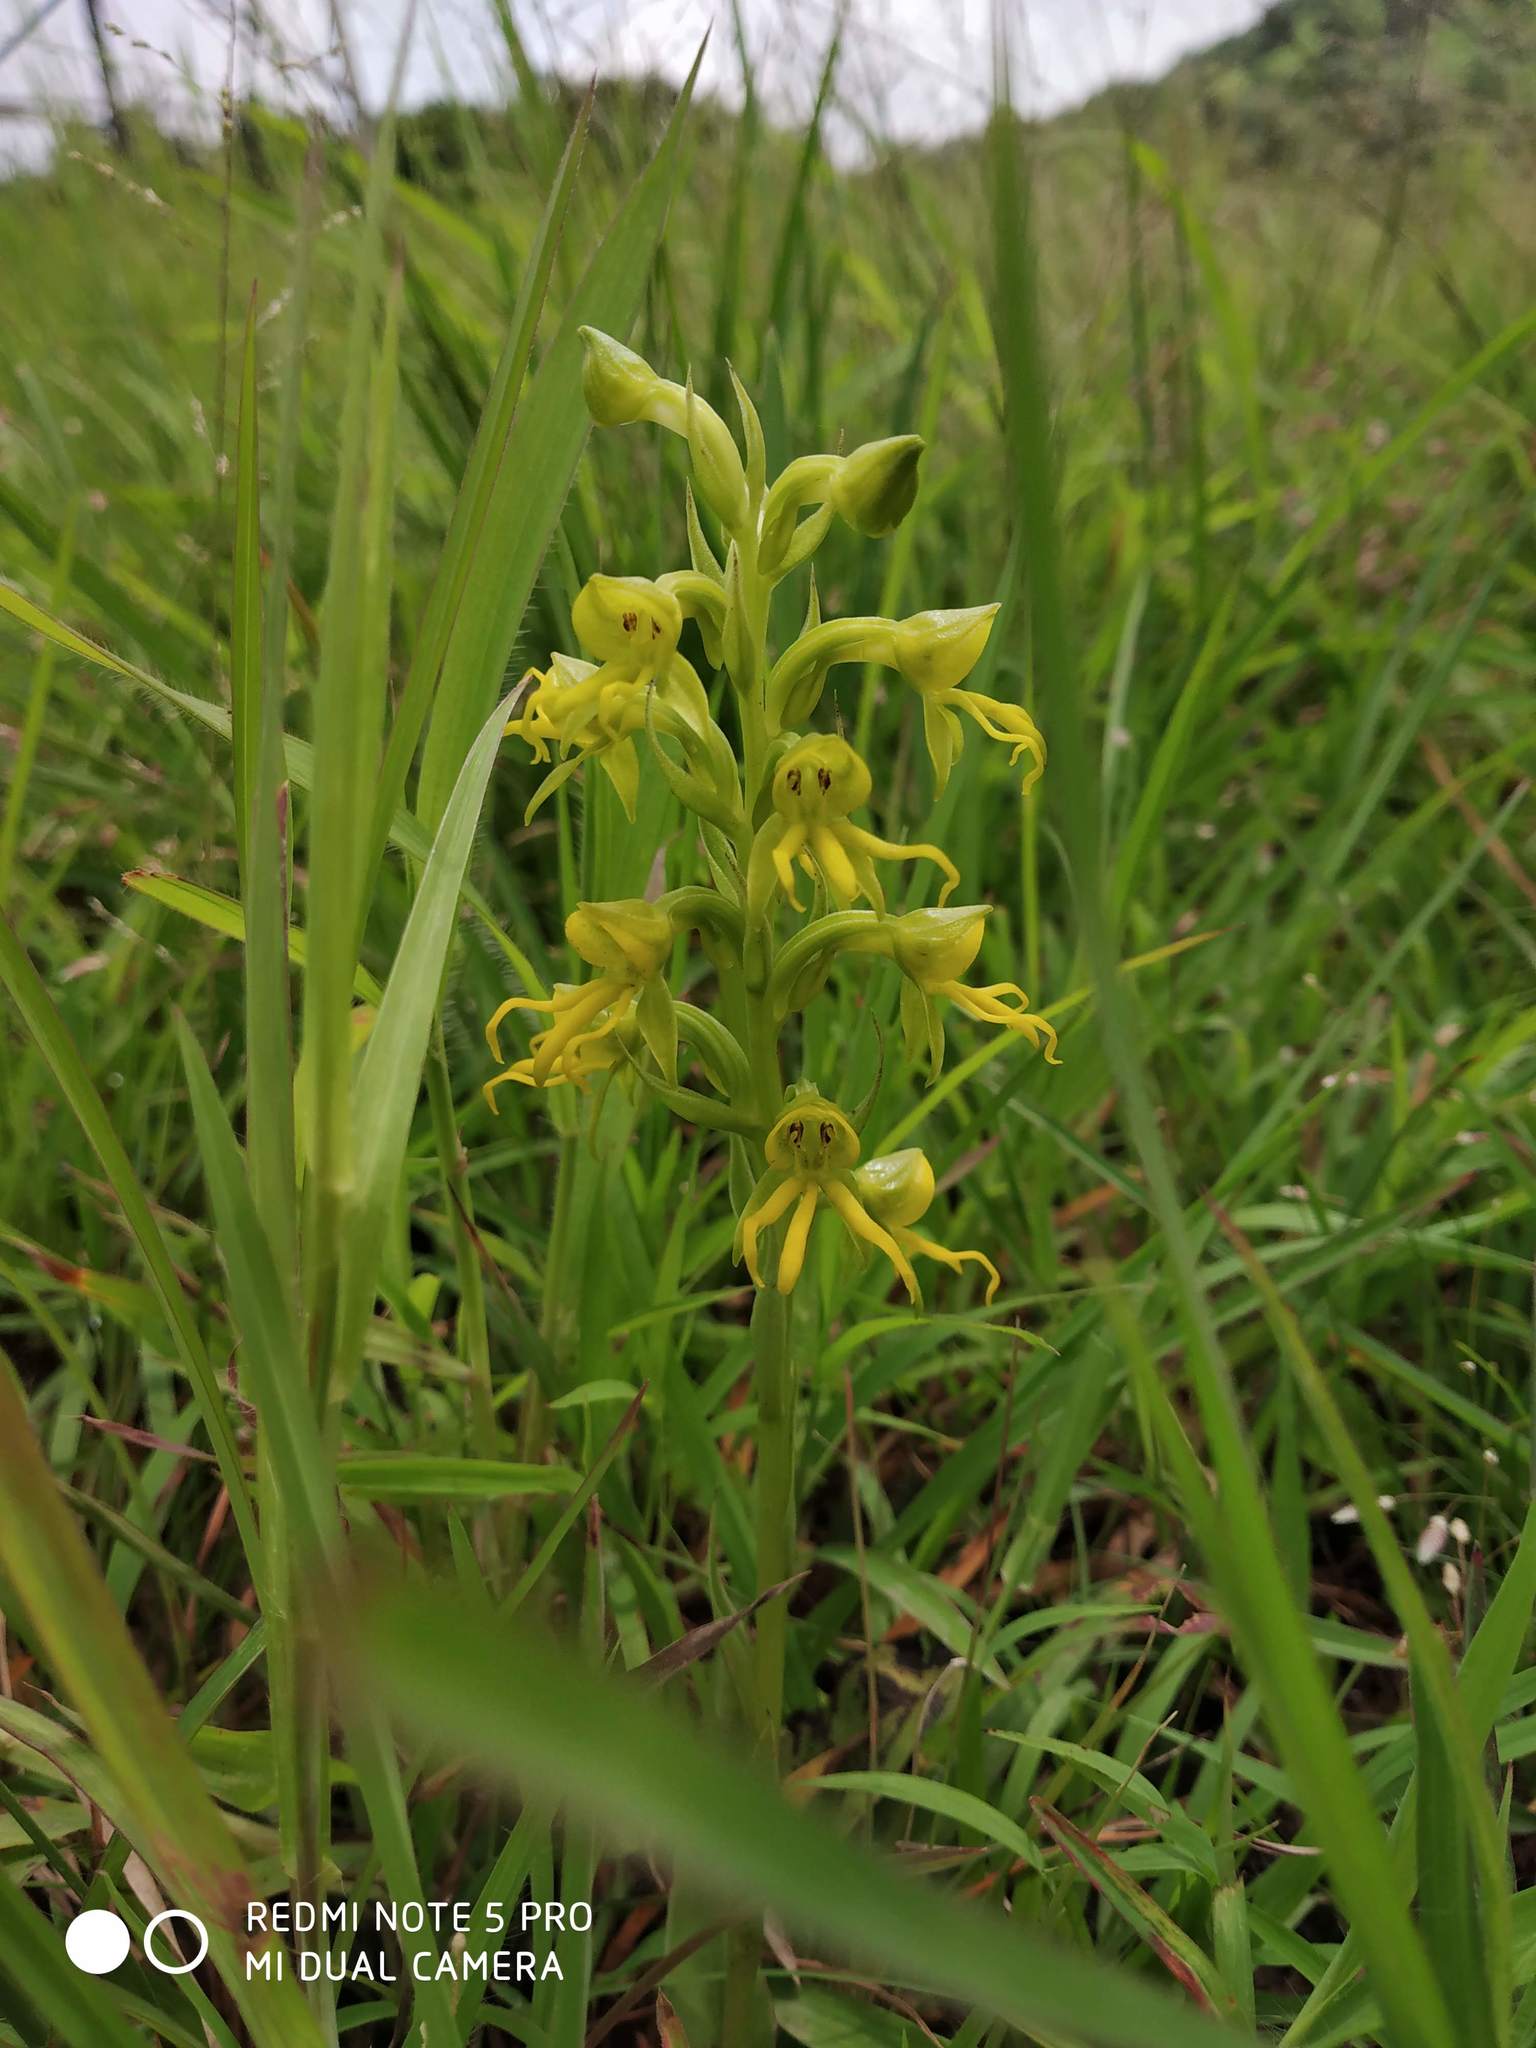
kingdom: Plantae
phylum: Tracheophyta
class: Liliopsida
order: Asparagales
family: Orchidaceae
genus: Habenaria
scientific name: Habenaria marginata
